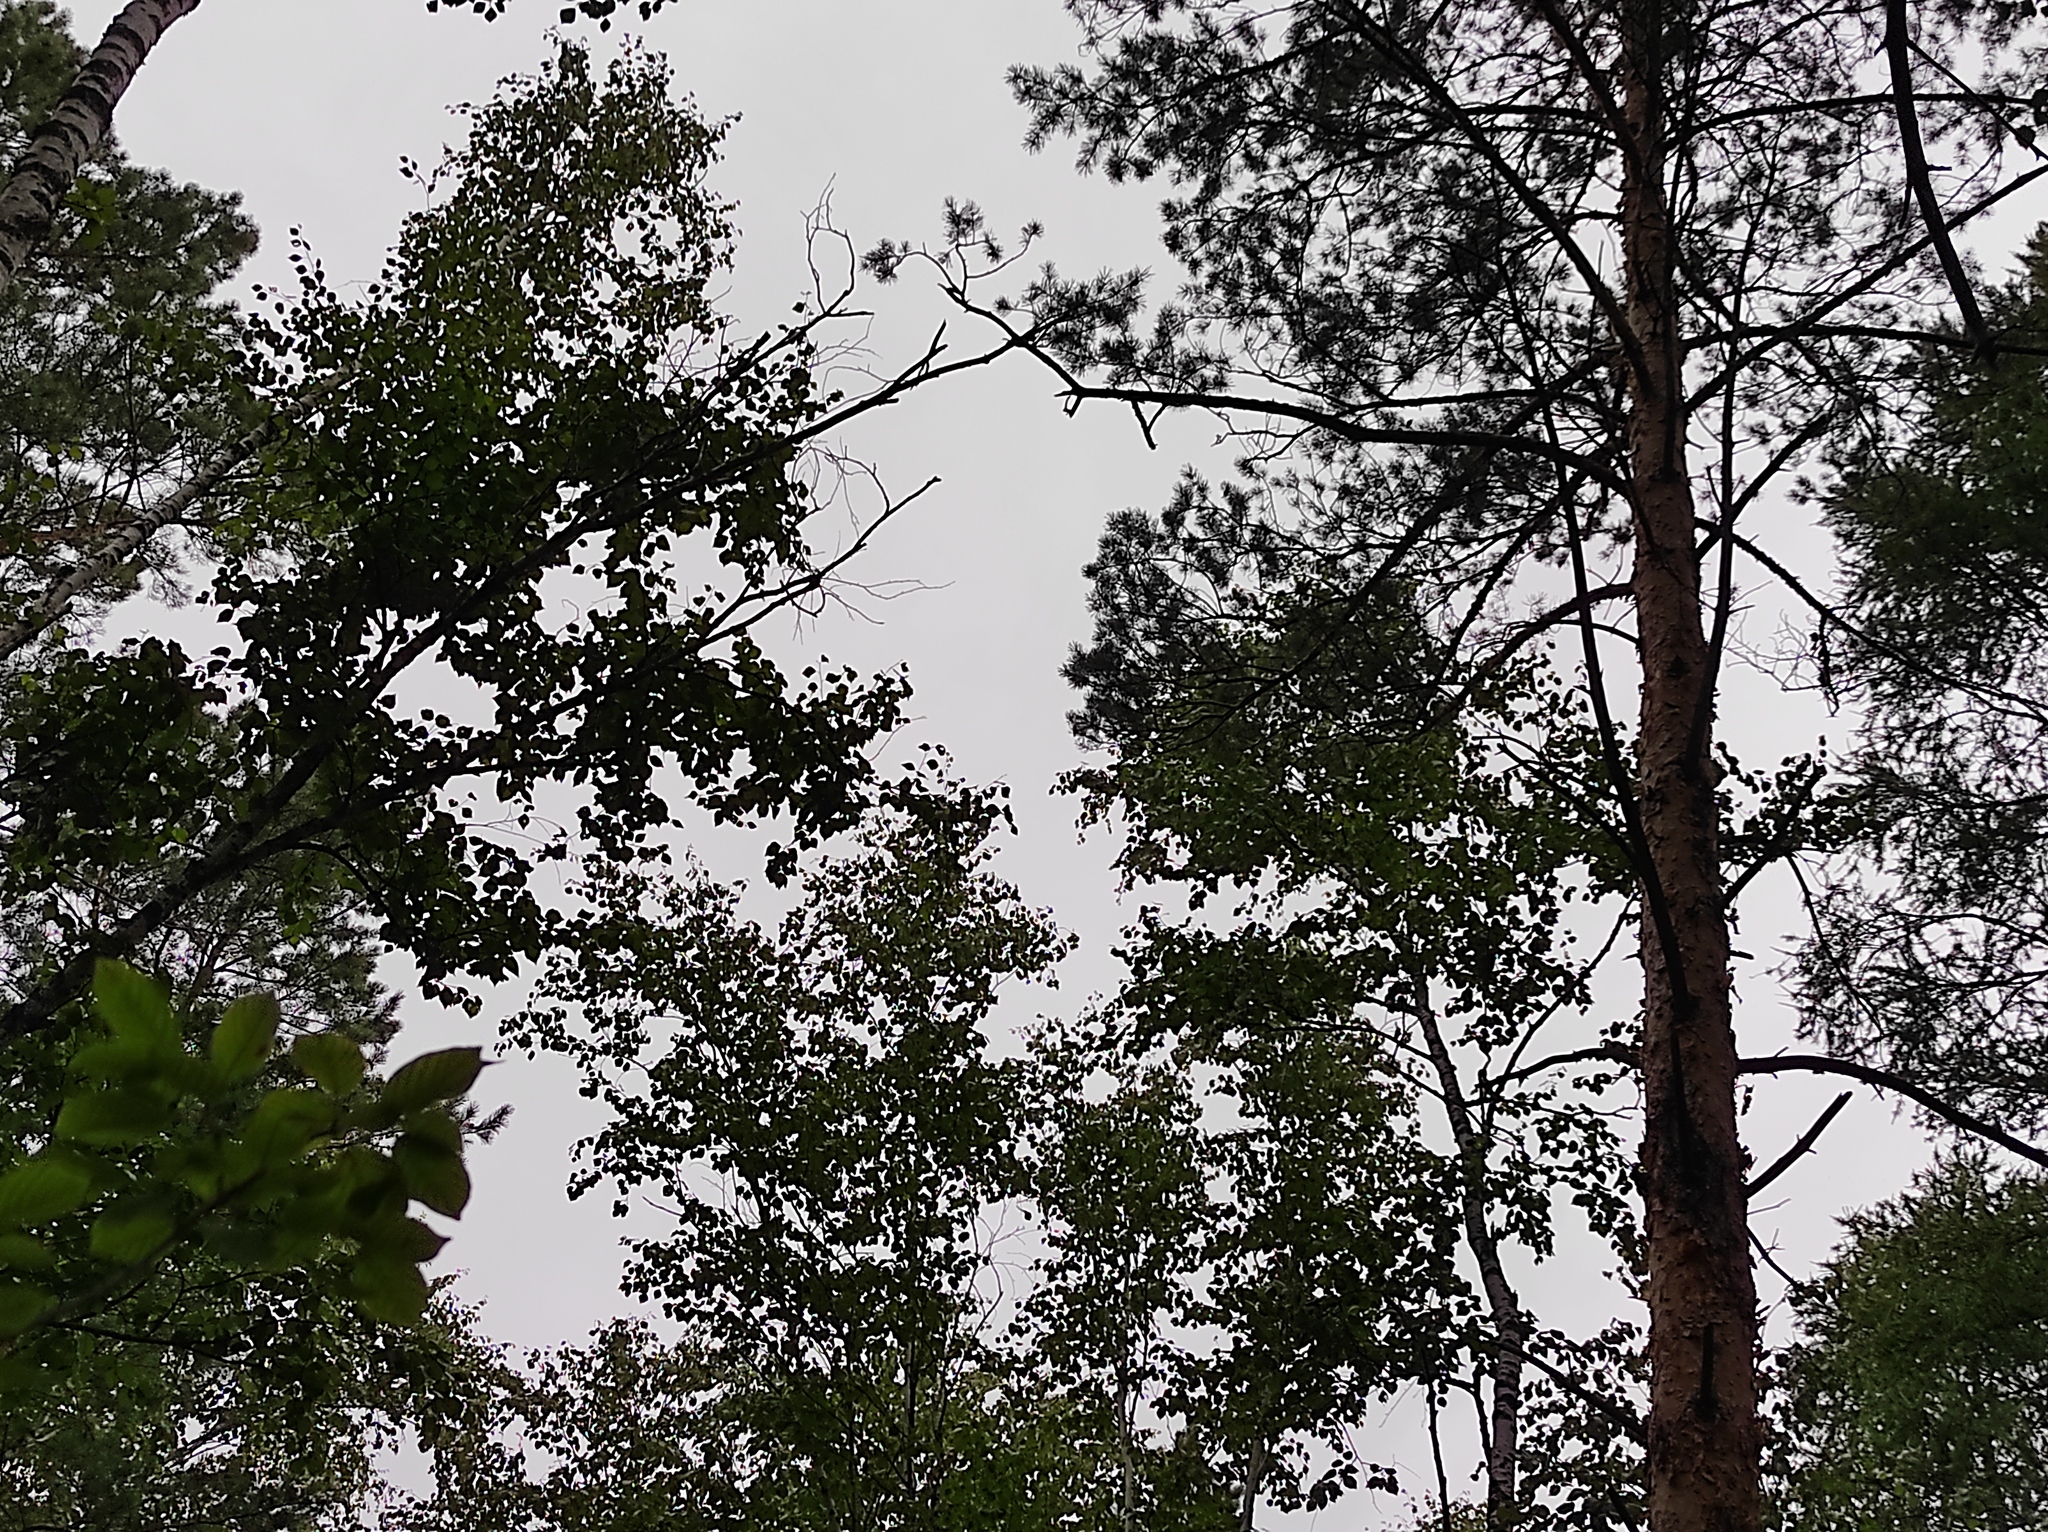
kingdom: Plantae
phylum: Tracheophyta
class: Magnoliopsida
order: Fagales
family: Betulaceae
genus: Betula
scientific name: Betula pubescens
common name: Downy birch
